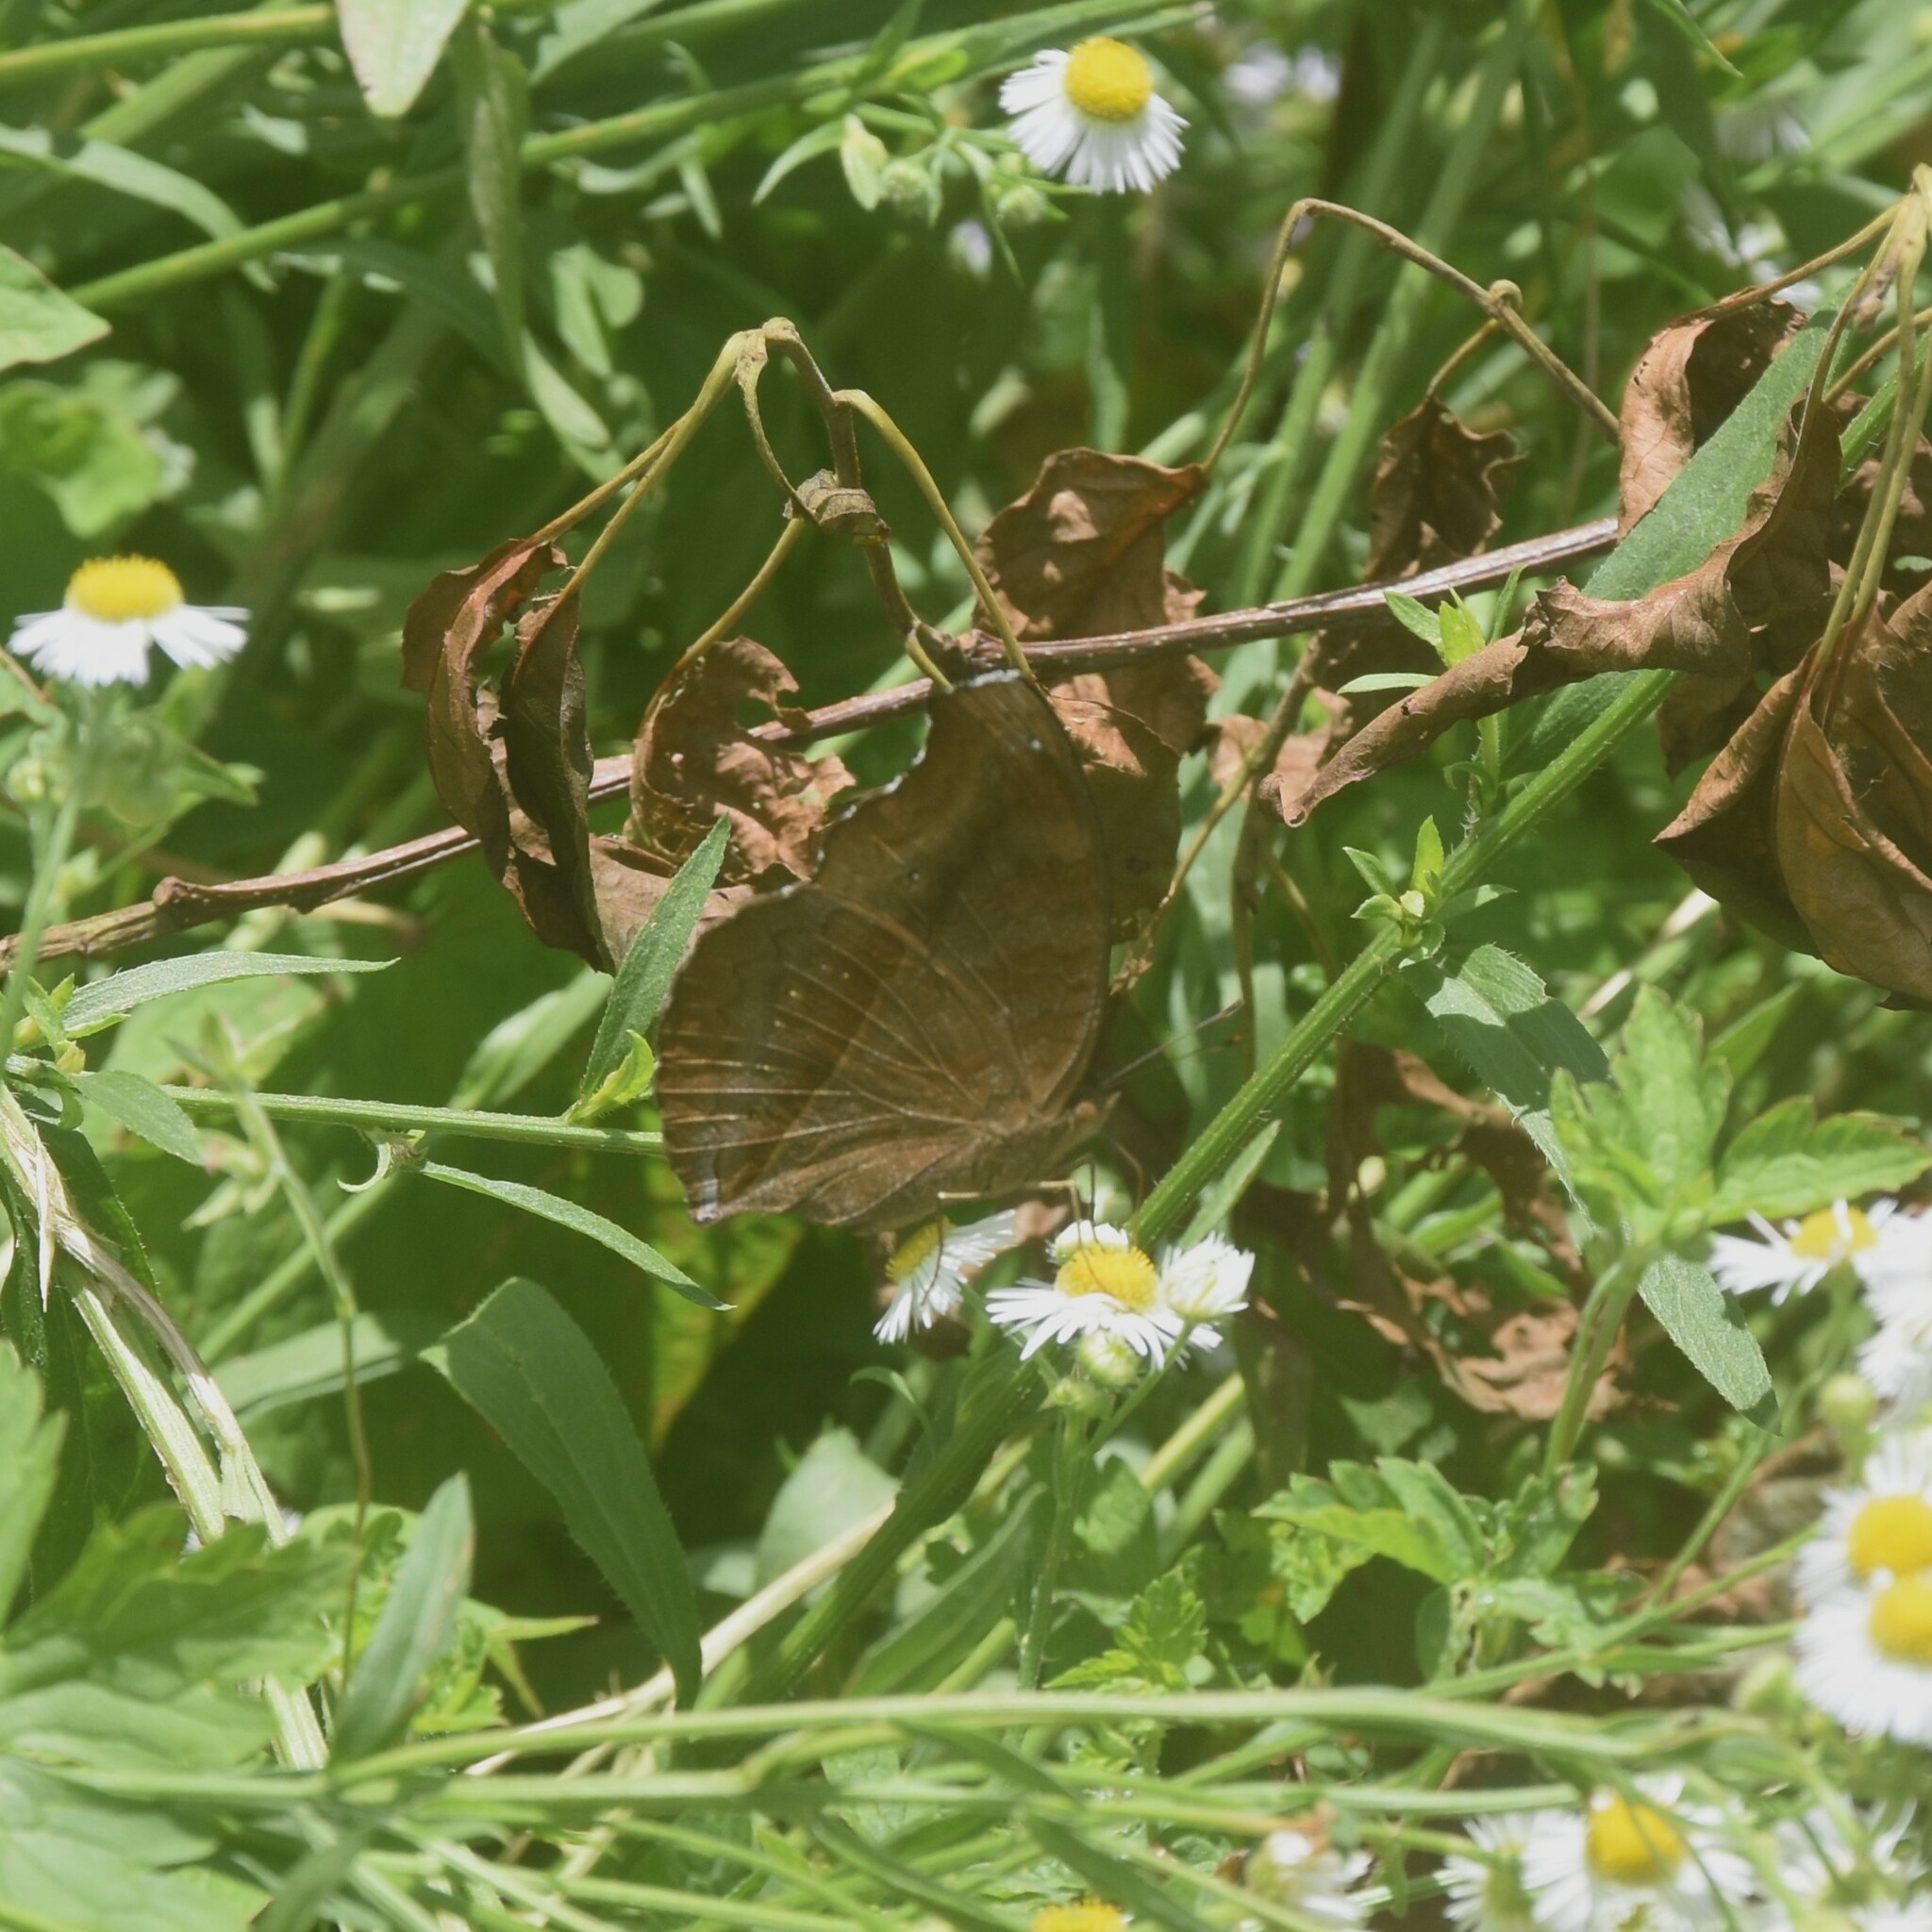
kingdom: Animalia
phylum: Arthropoda
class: Insecta
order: Lepidoptera
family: Nymphalidae
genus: Junonia
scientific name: Junonia iphita
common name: Chocolate pansy
